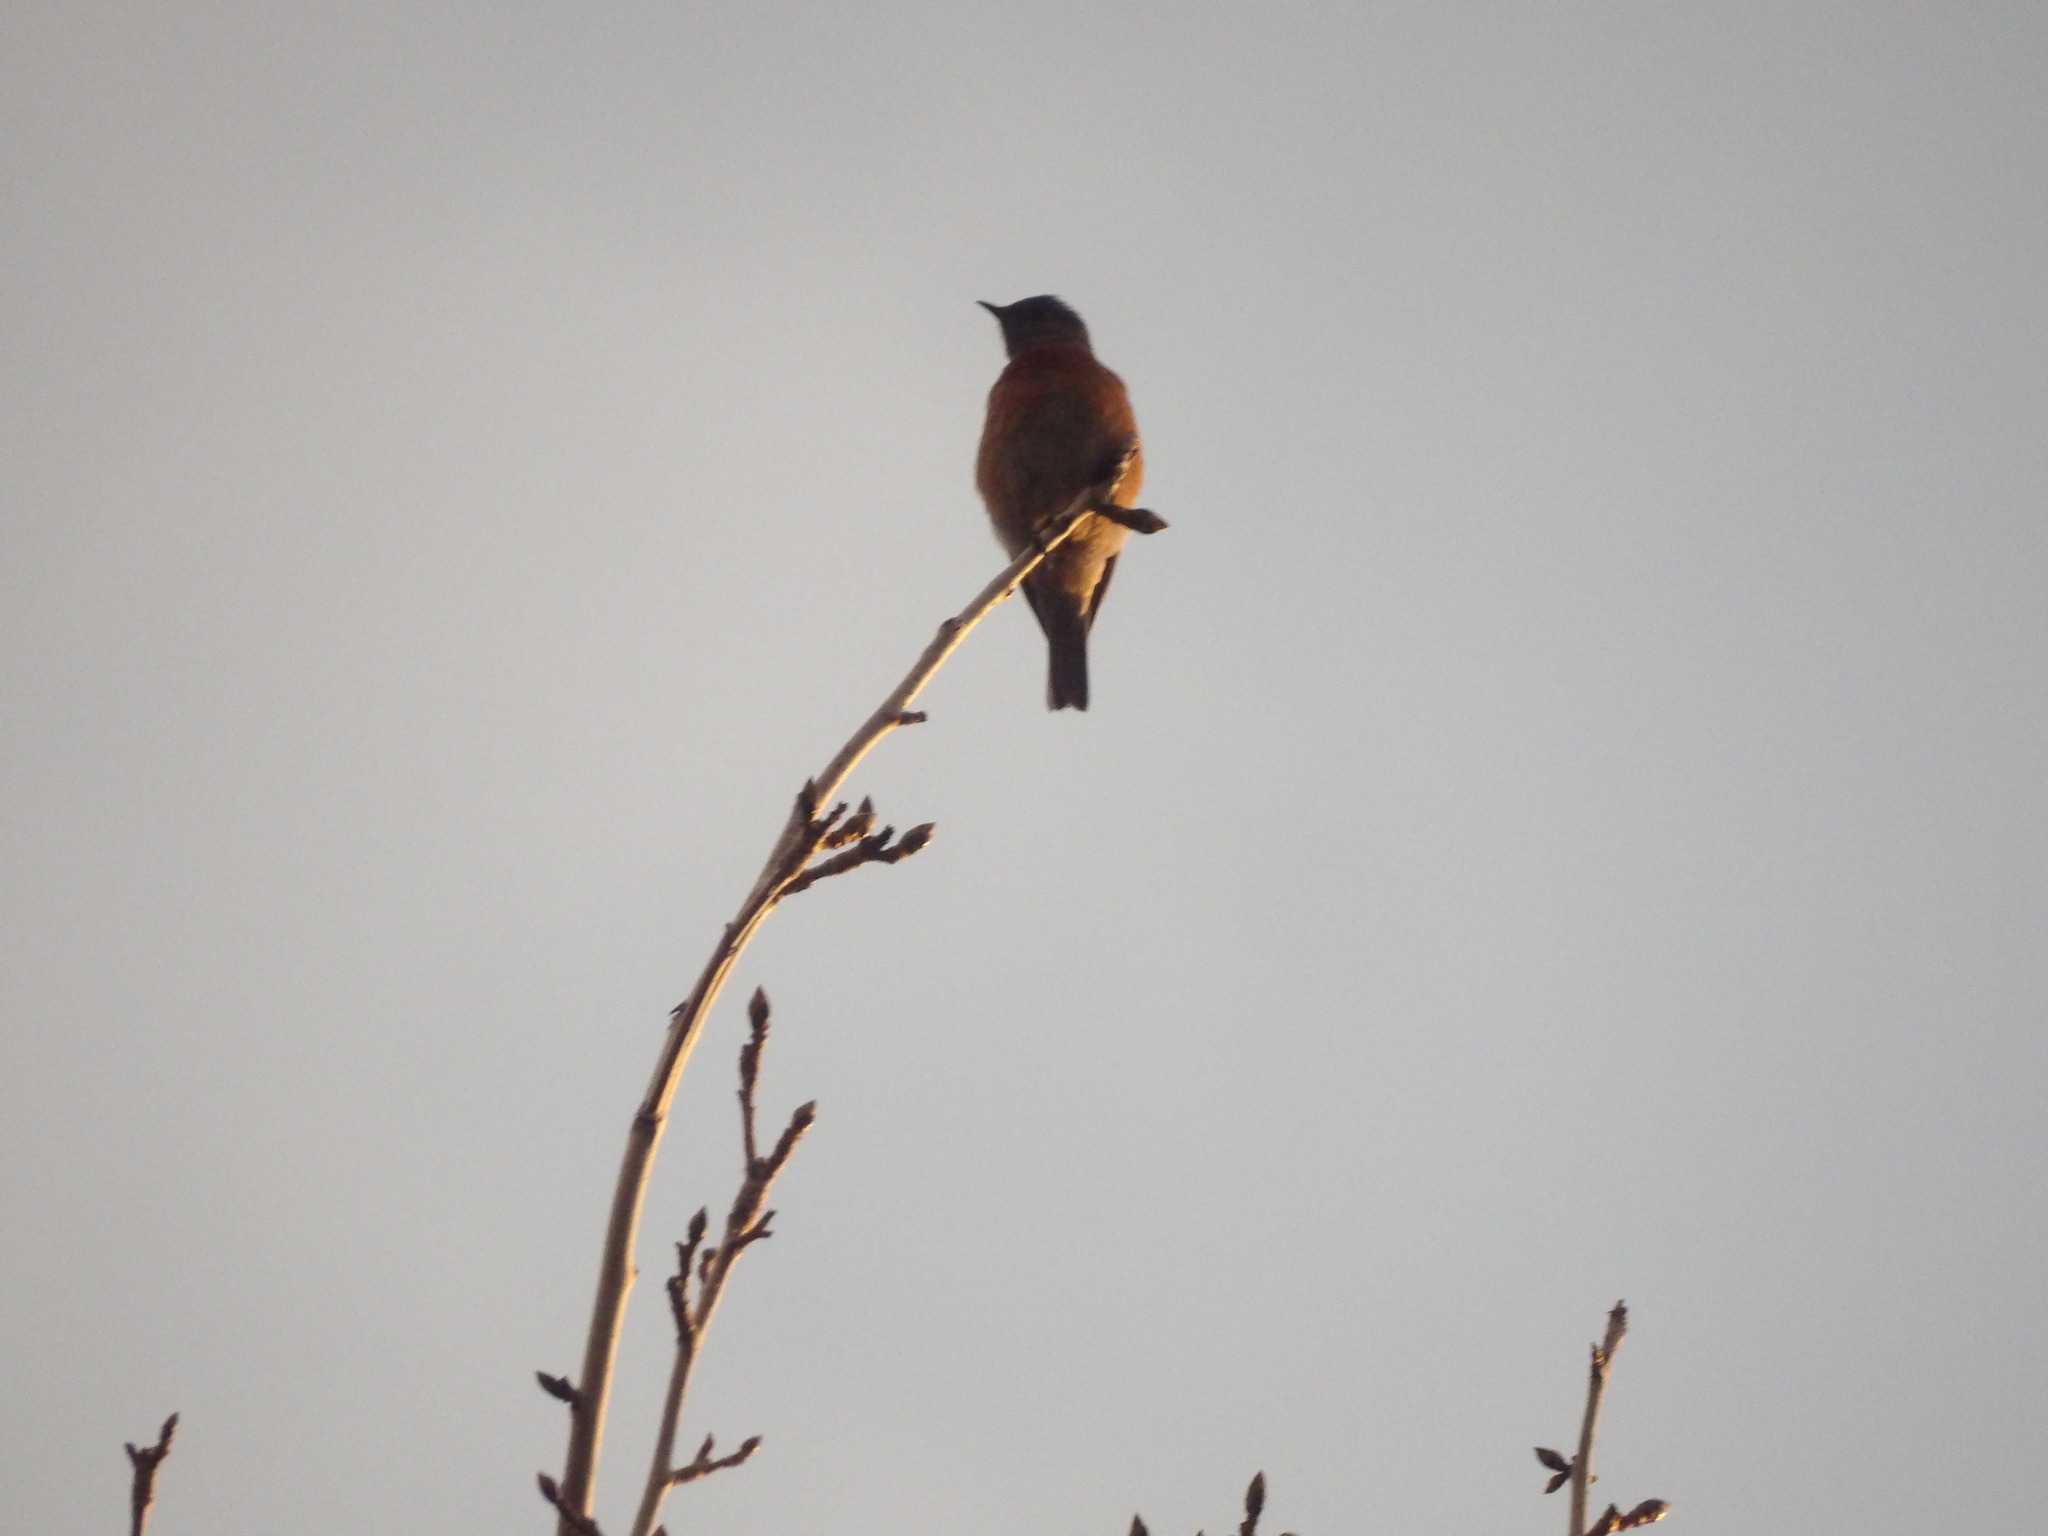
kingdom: Animalia
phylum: Chordata
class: Aves
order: Passeriformes
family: Turdidae
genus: Sialia
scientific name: Sialia mexicana
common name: Western bluebird
